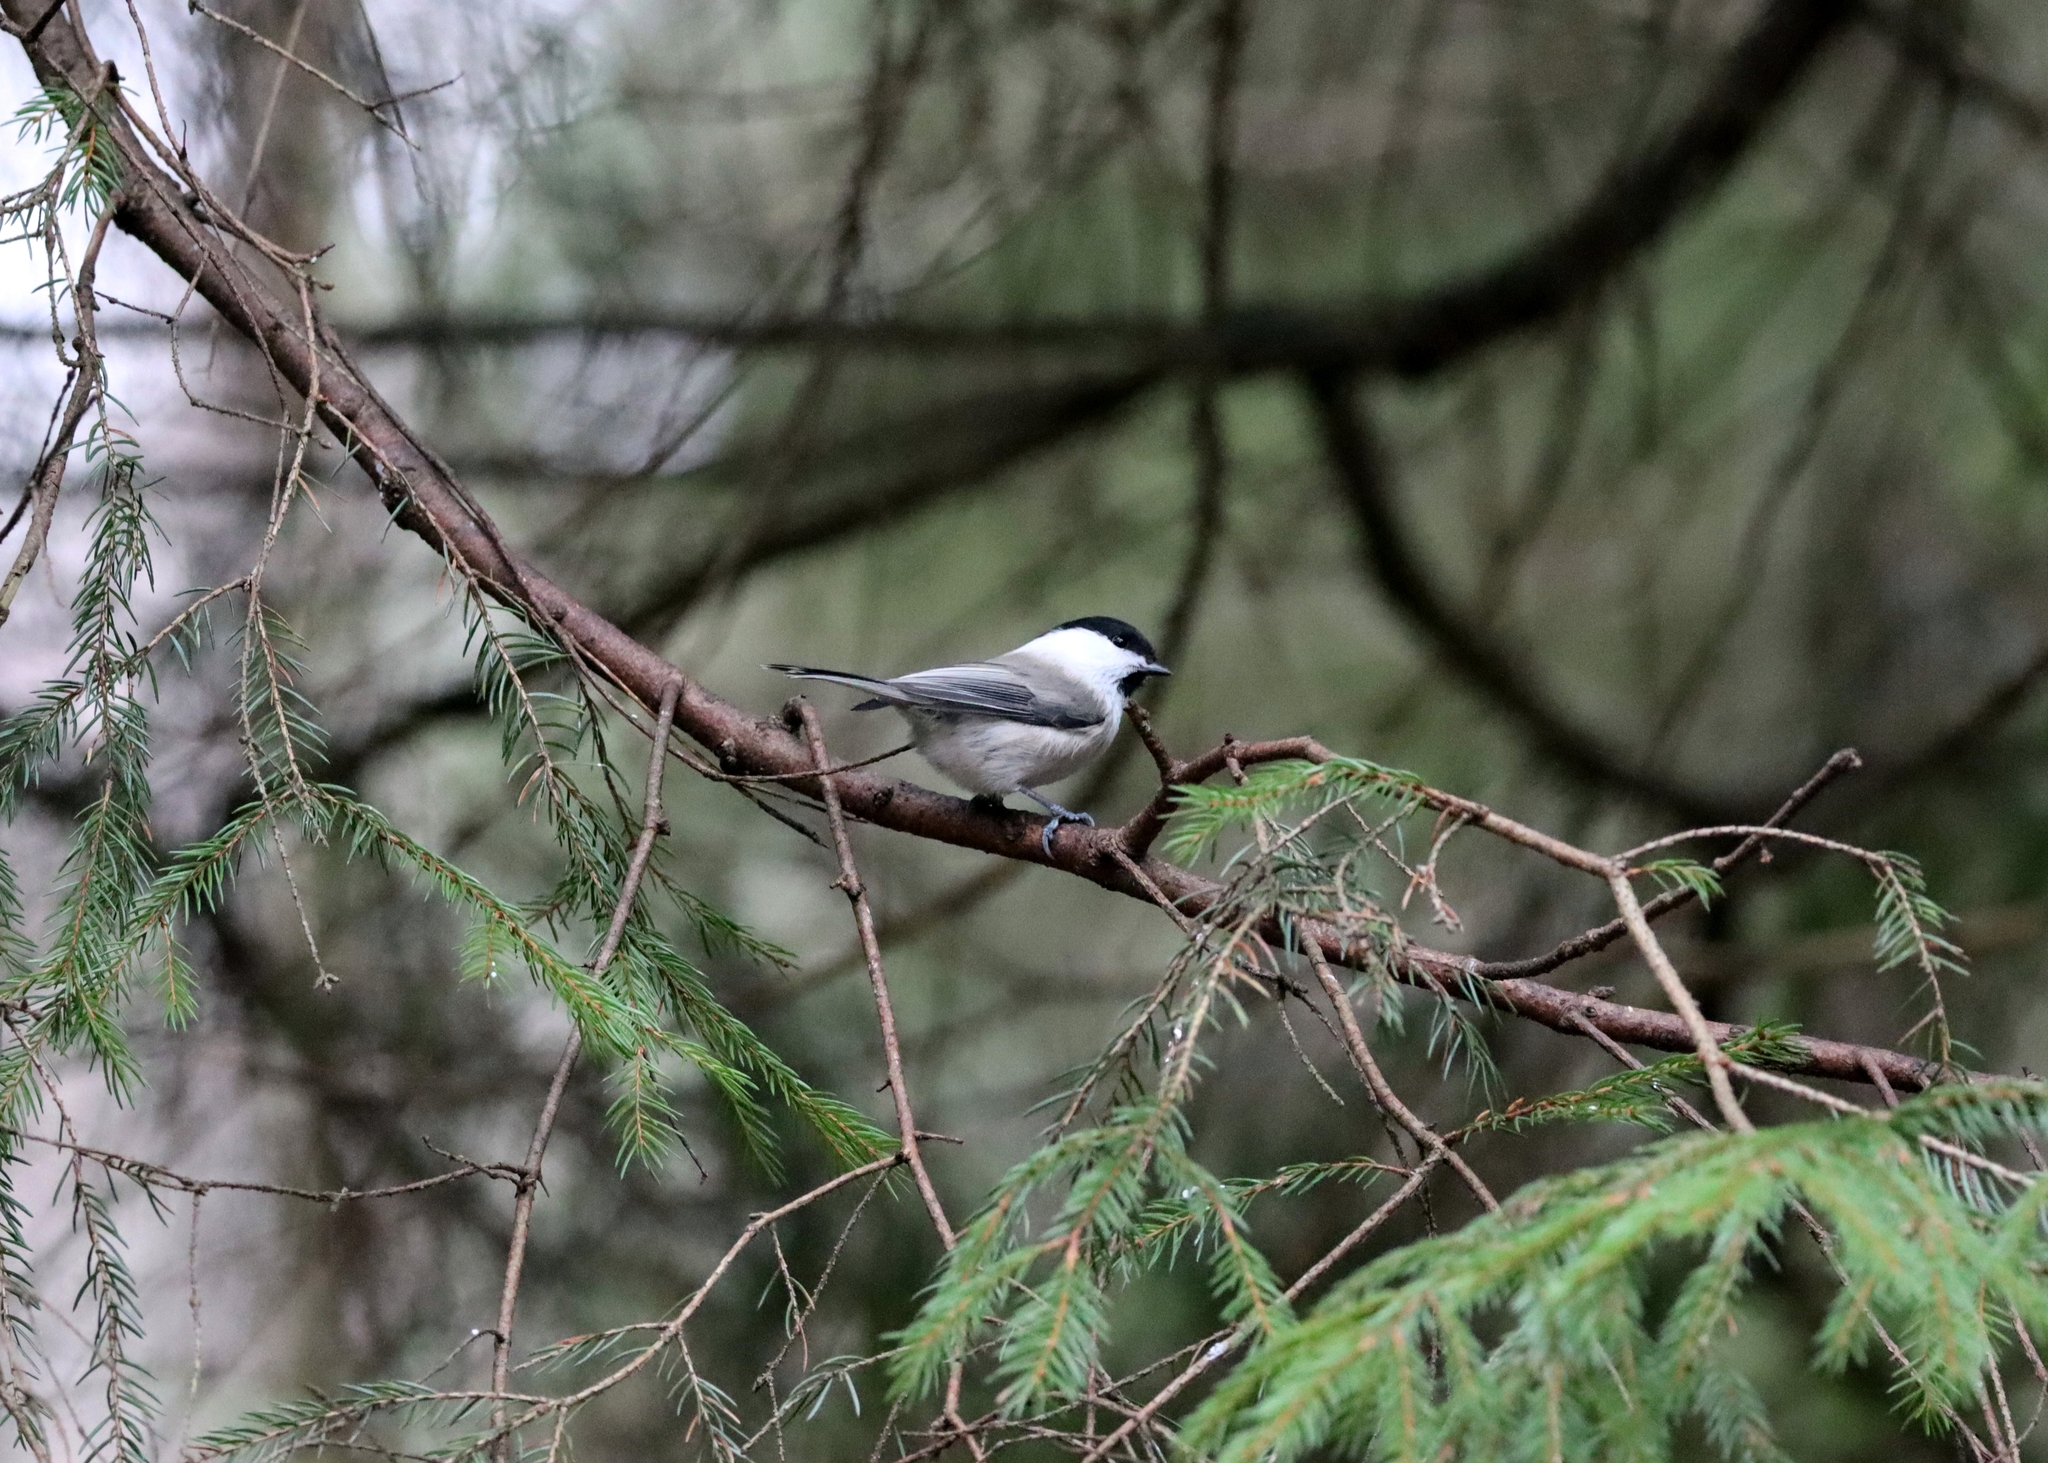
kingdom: Animalia
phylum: Chordata
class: Aves
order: Passeriformes
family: Paridae
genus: Poecile
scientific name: Poecile montanus
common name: Willow tit
